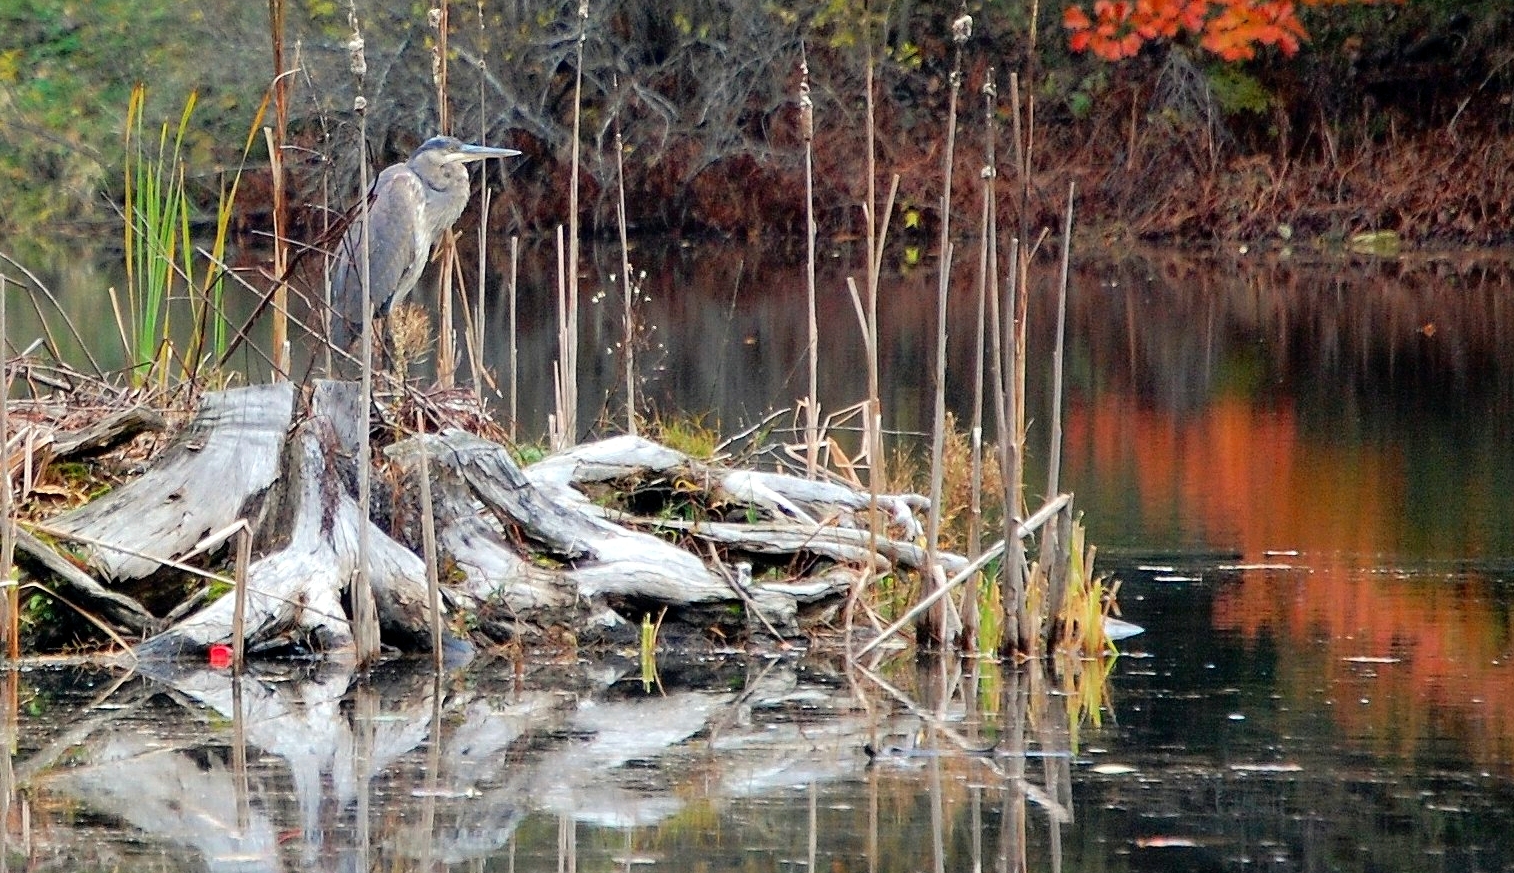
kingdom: Animalia
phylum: Chordata
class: Aves
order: Pelecaniformes
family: Ardeidae
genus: Ardea
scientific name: Ardea herodias
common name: Great blue heron
